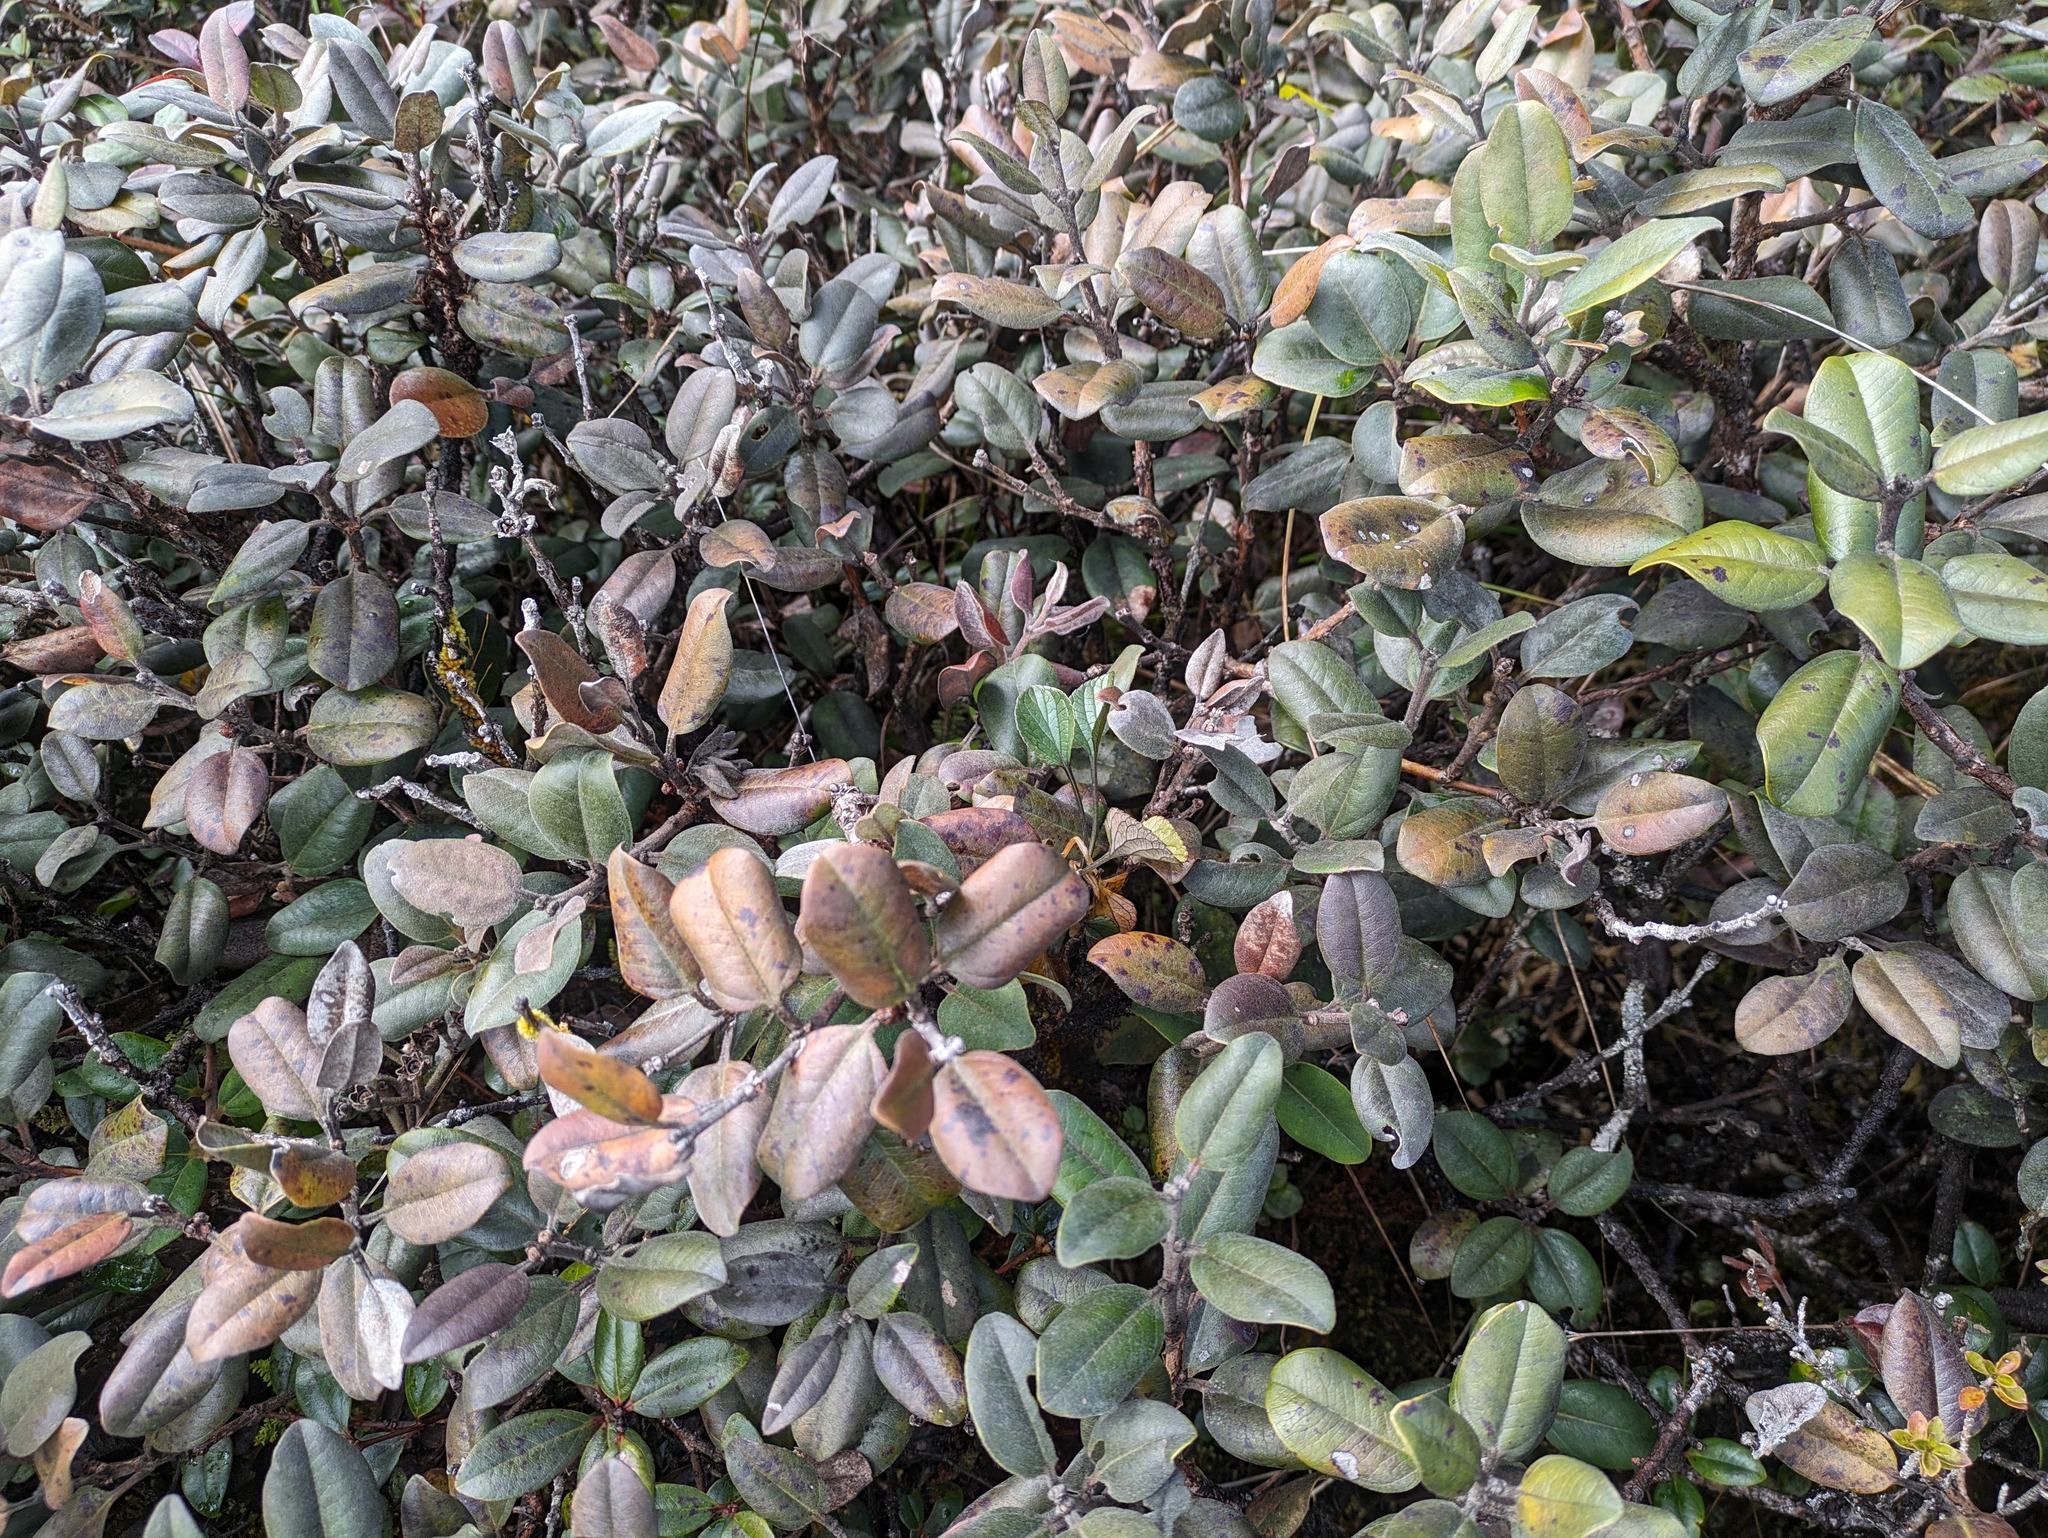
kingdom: Plantae
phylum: Tracheophyta
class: Magnoliopsida
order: Myrtales
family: Myrtaceae
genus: Metrosideros
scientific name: Metrosideros polymorpha
